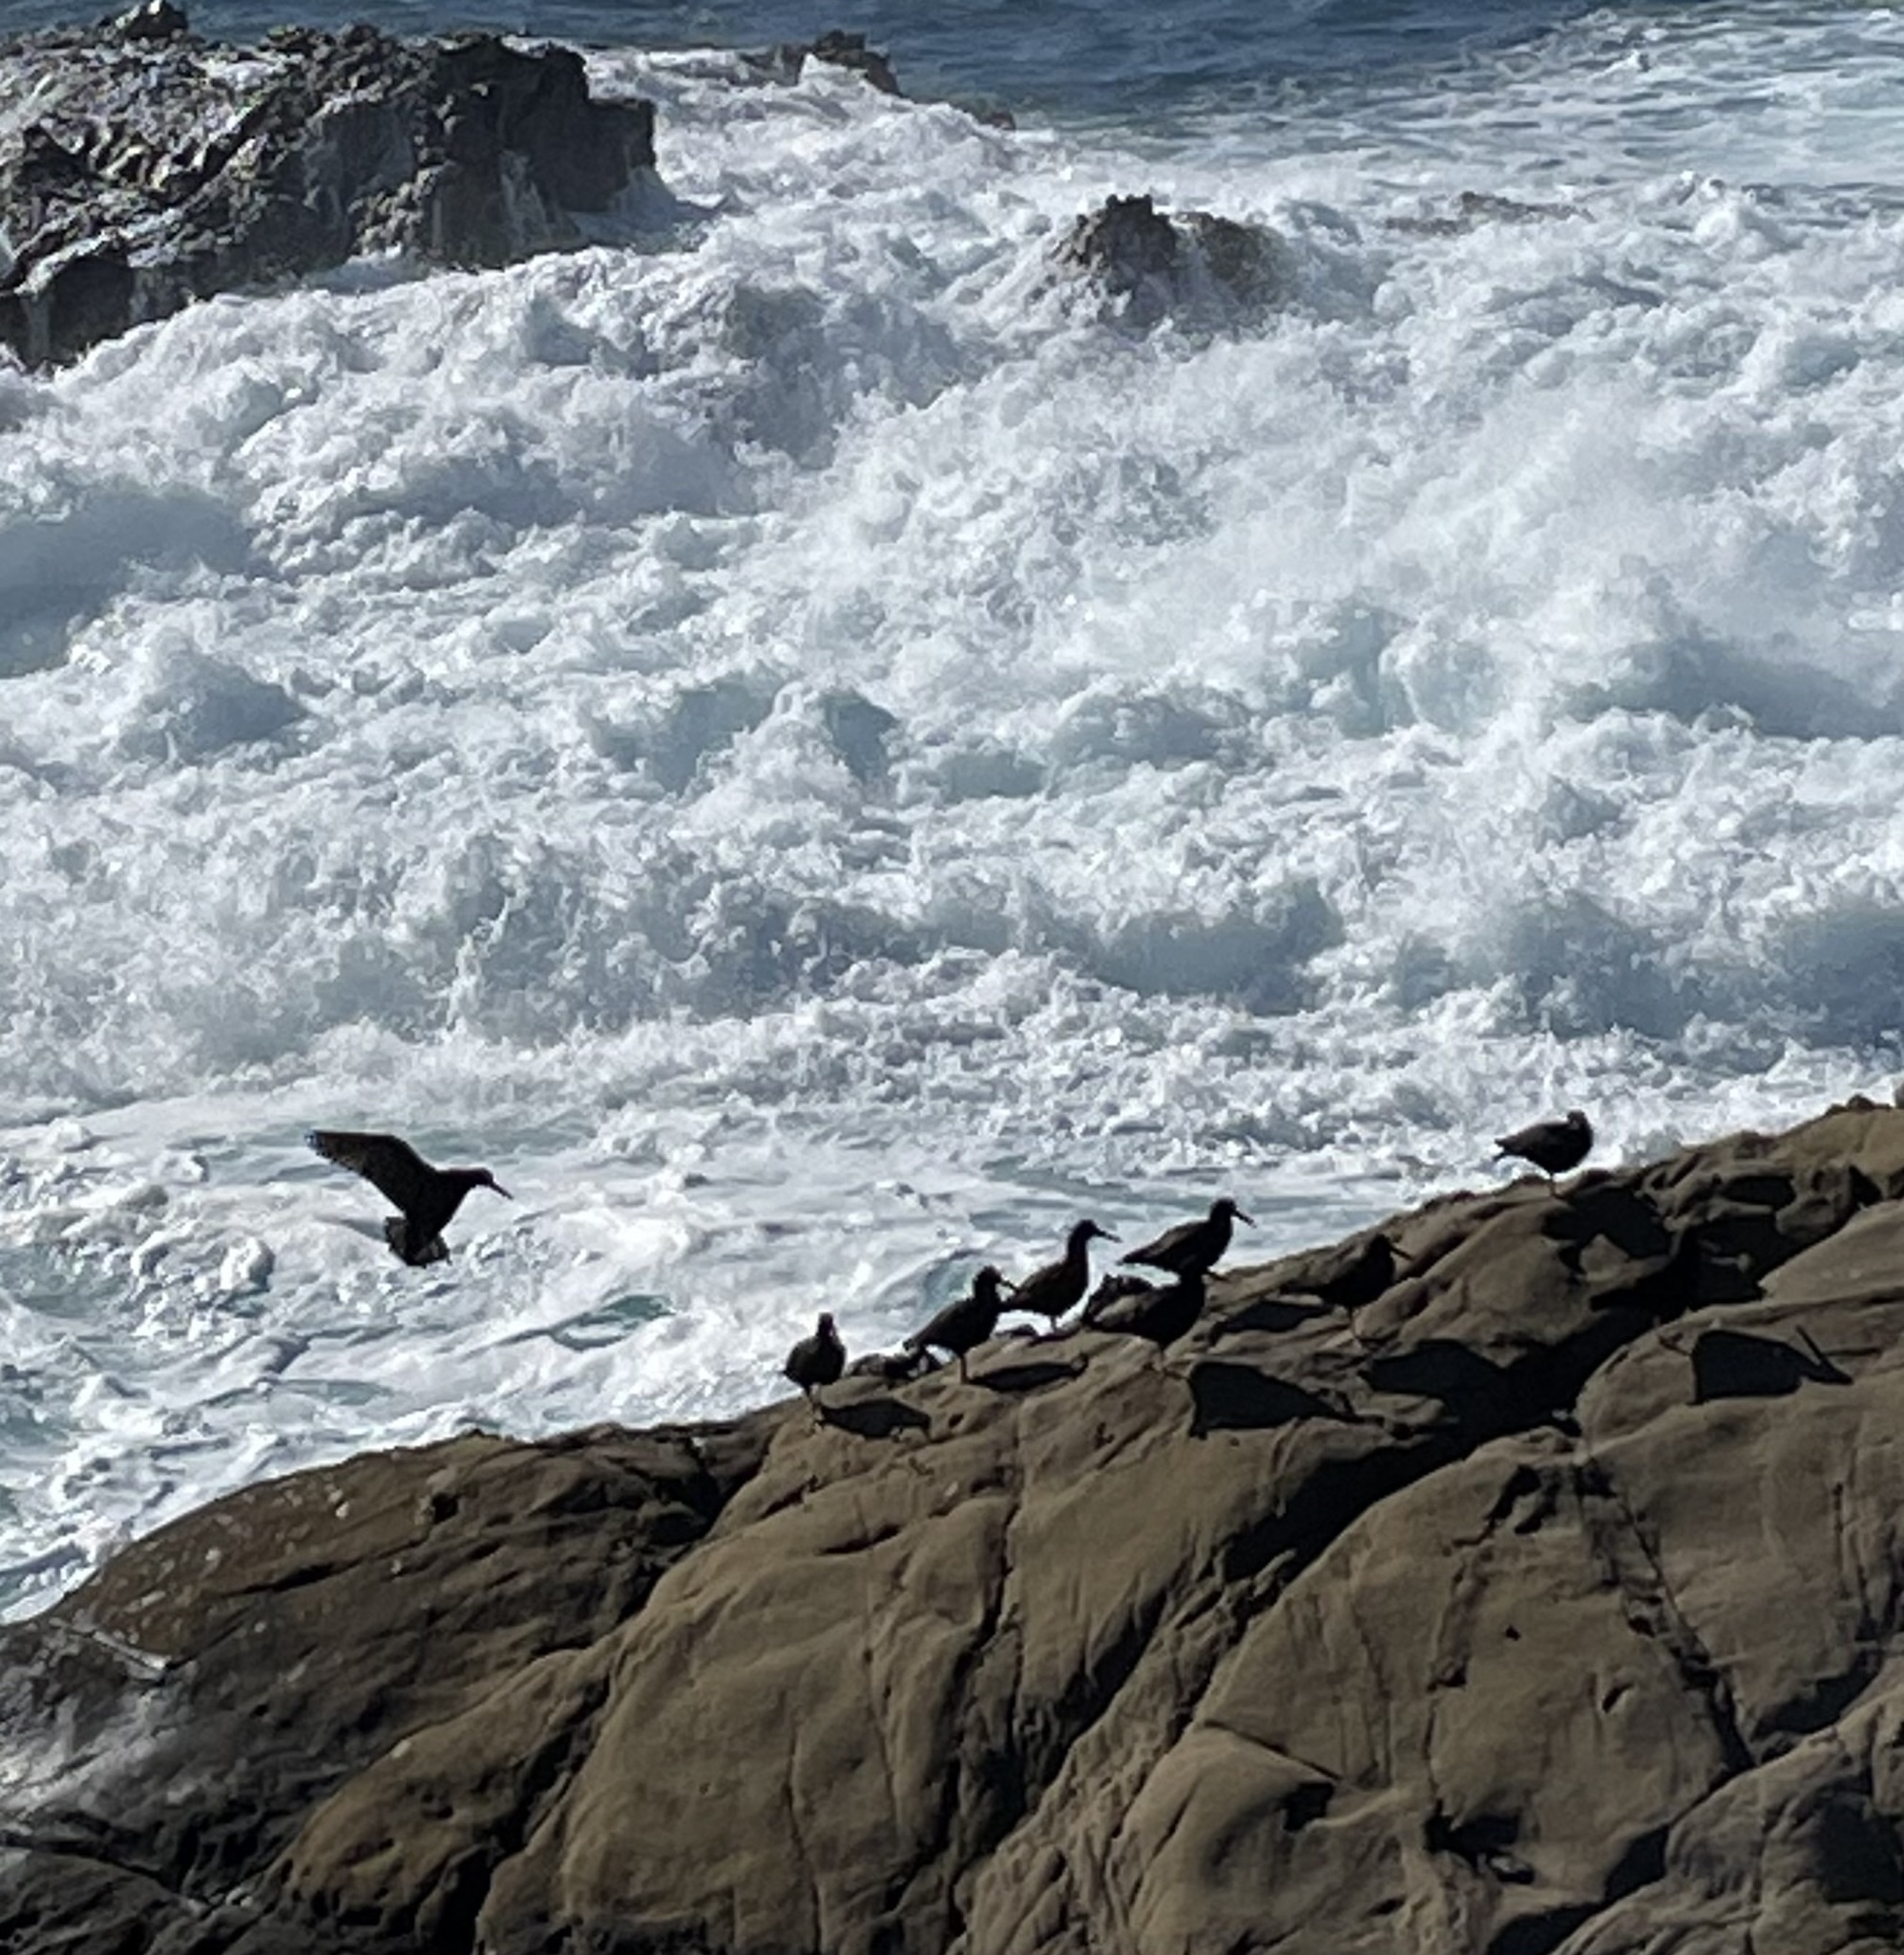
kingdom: Animalia
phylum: Chordata
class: Aves
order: Charadriiformes
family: Haematopodidae
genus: Haematopus
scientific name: Haematopus bachmani
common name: Black oystercatcher
